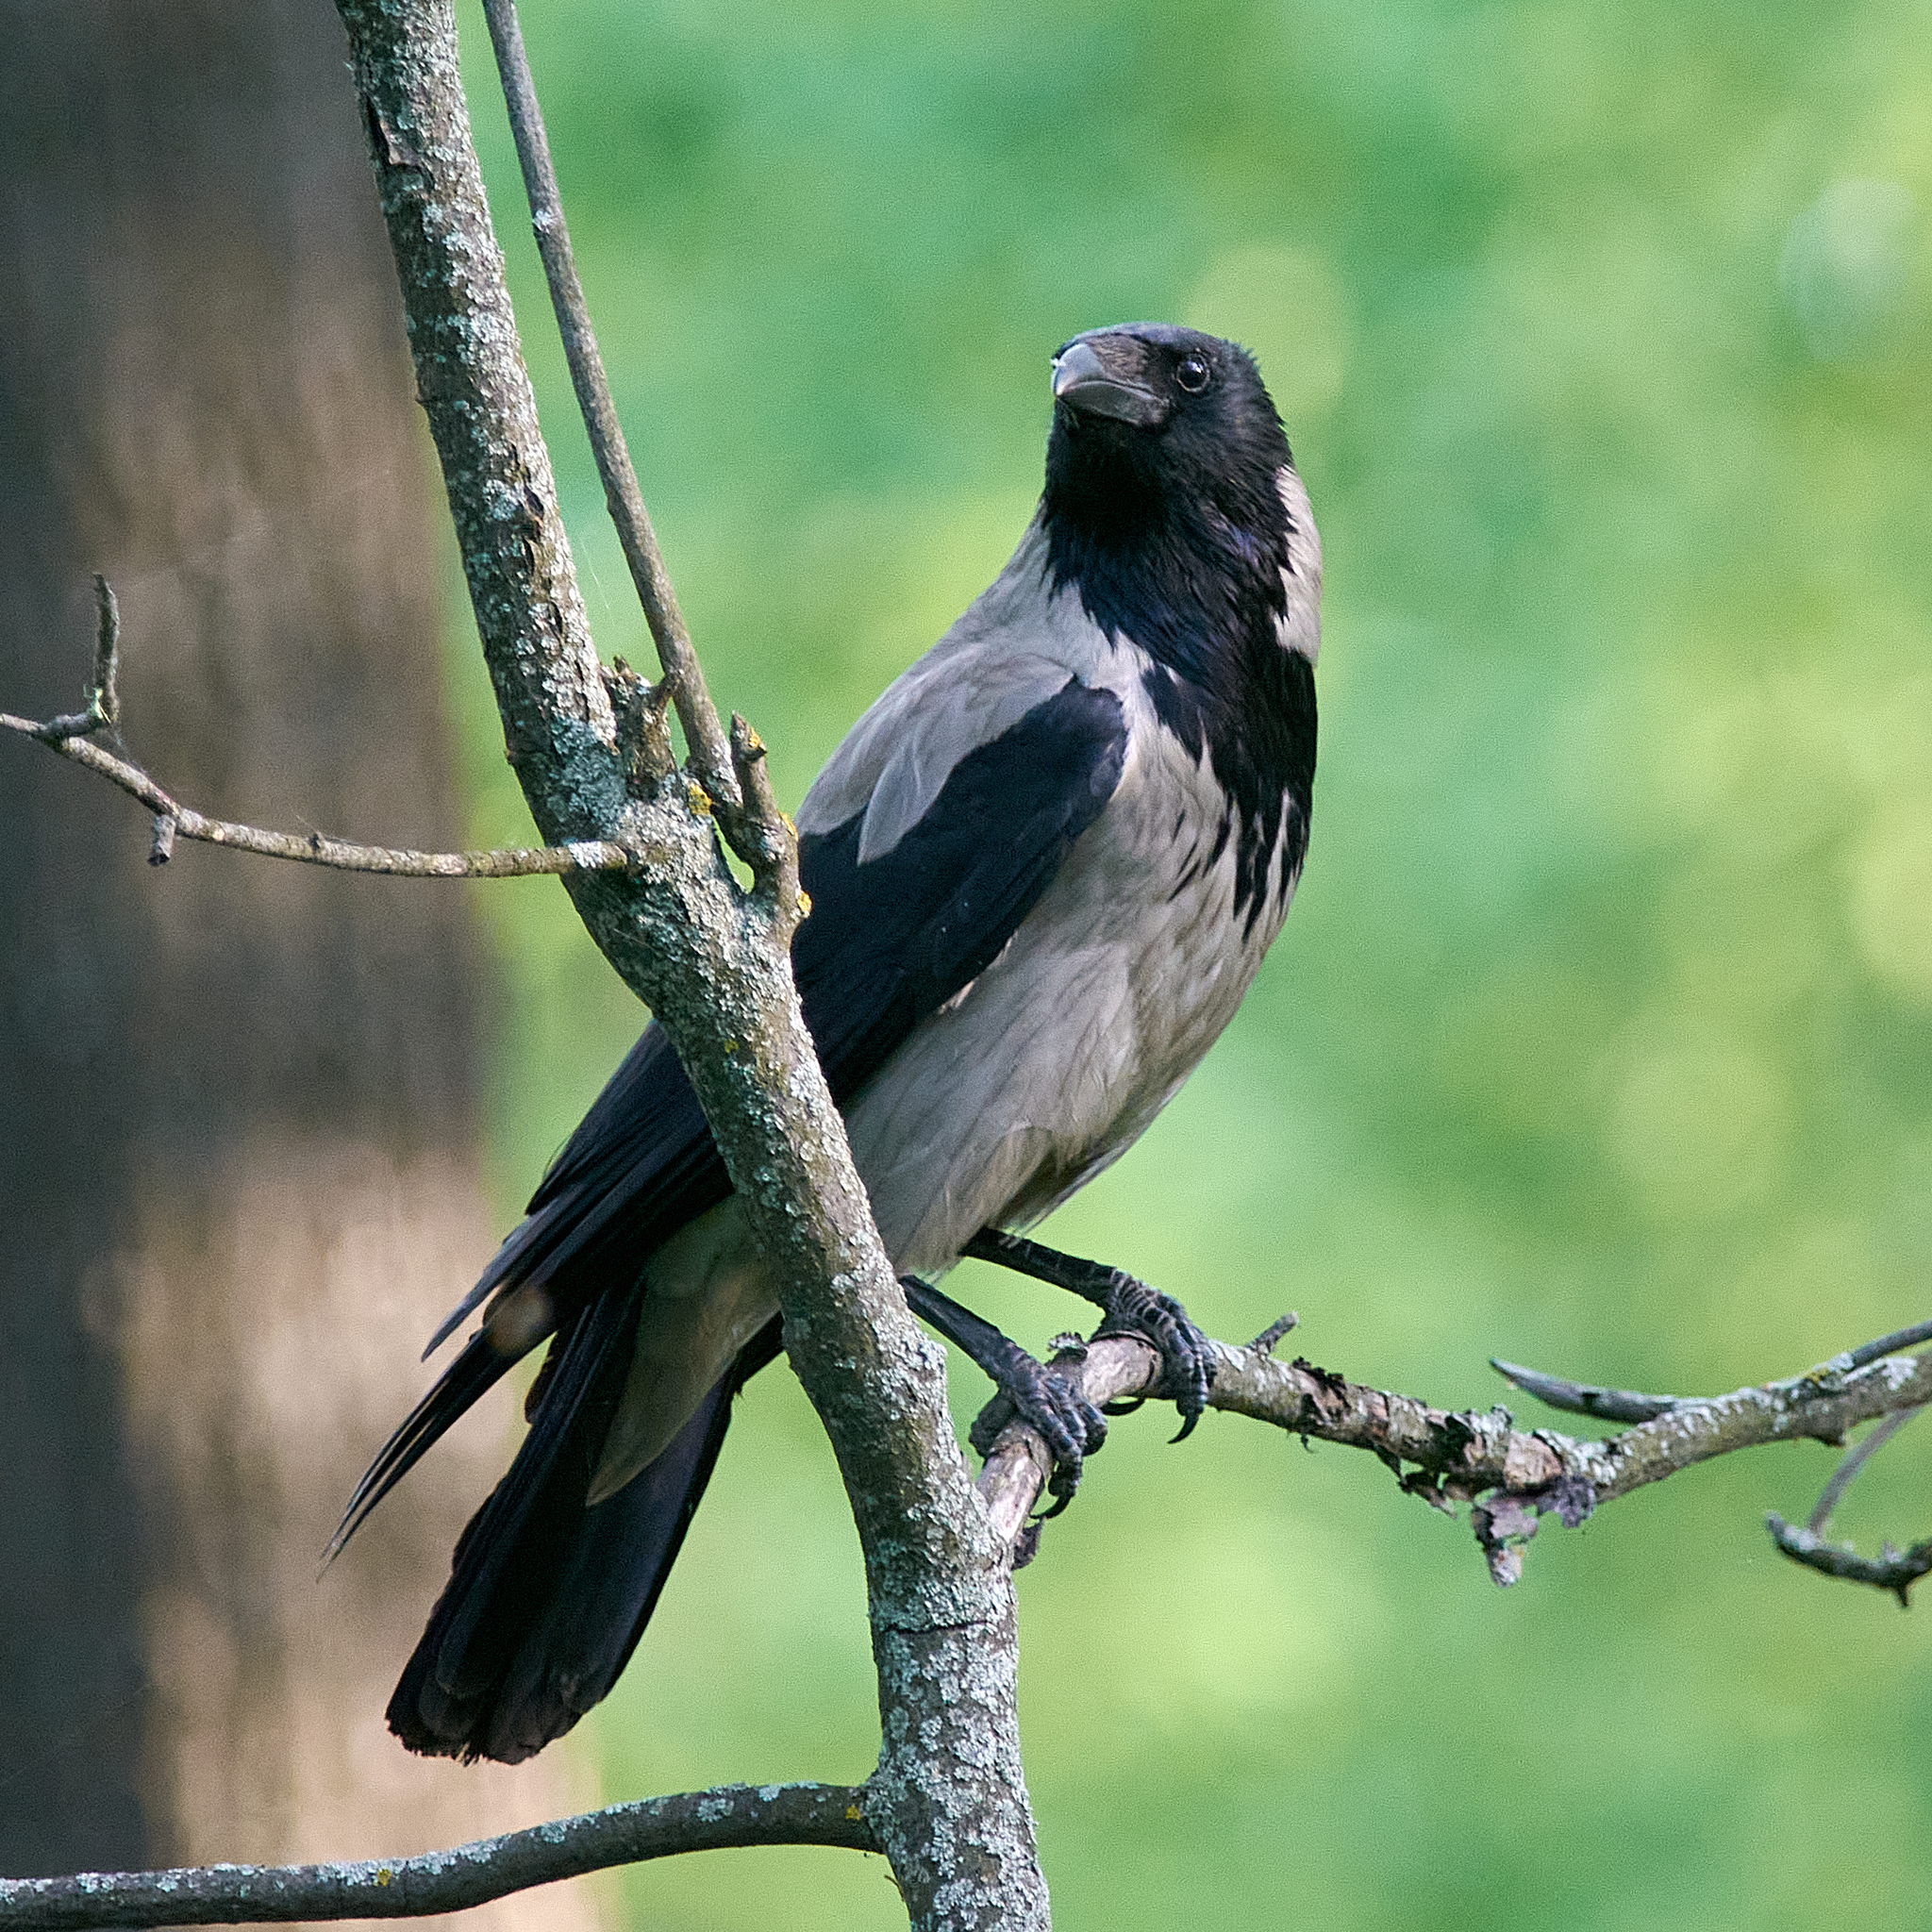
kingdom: Animalia
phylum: Chordata
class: Aves
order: Passeriformes
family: Corvidae
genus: Corvus
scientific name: Corvus cornix
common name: Hooded crow
